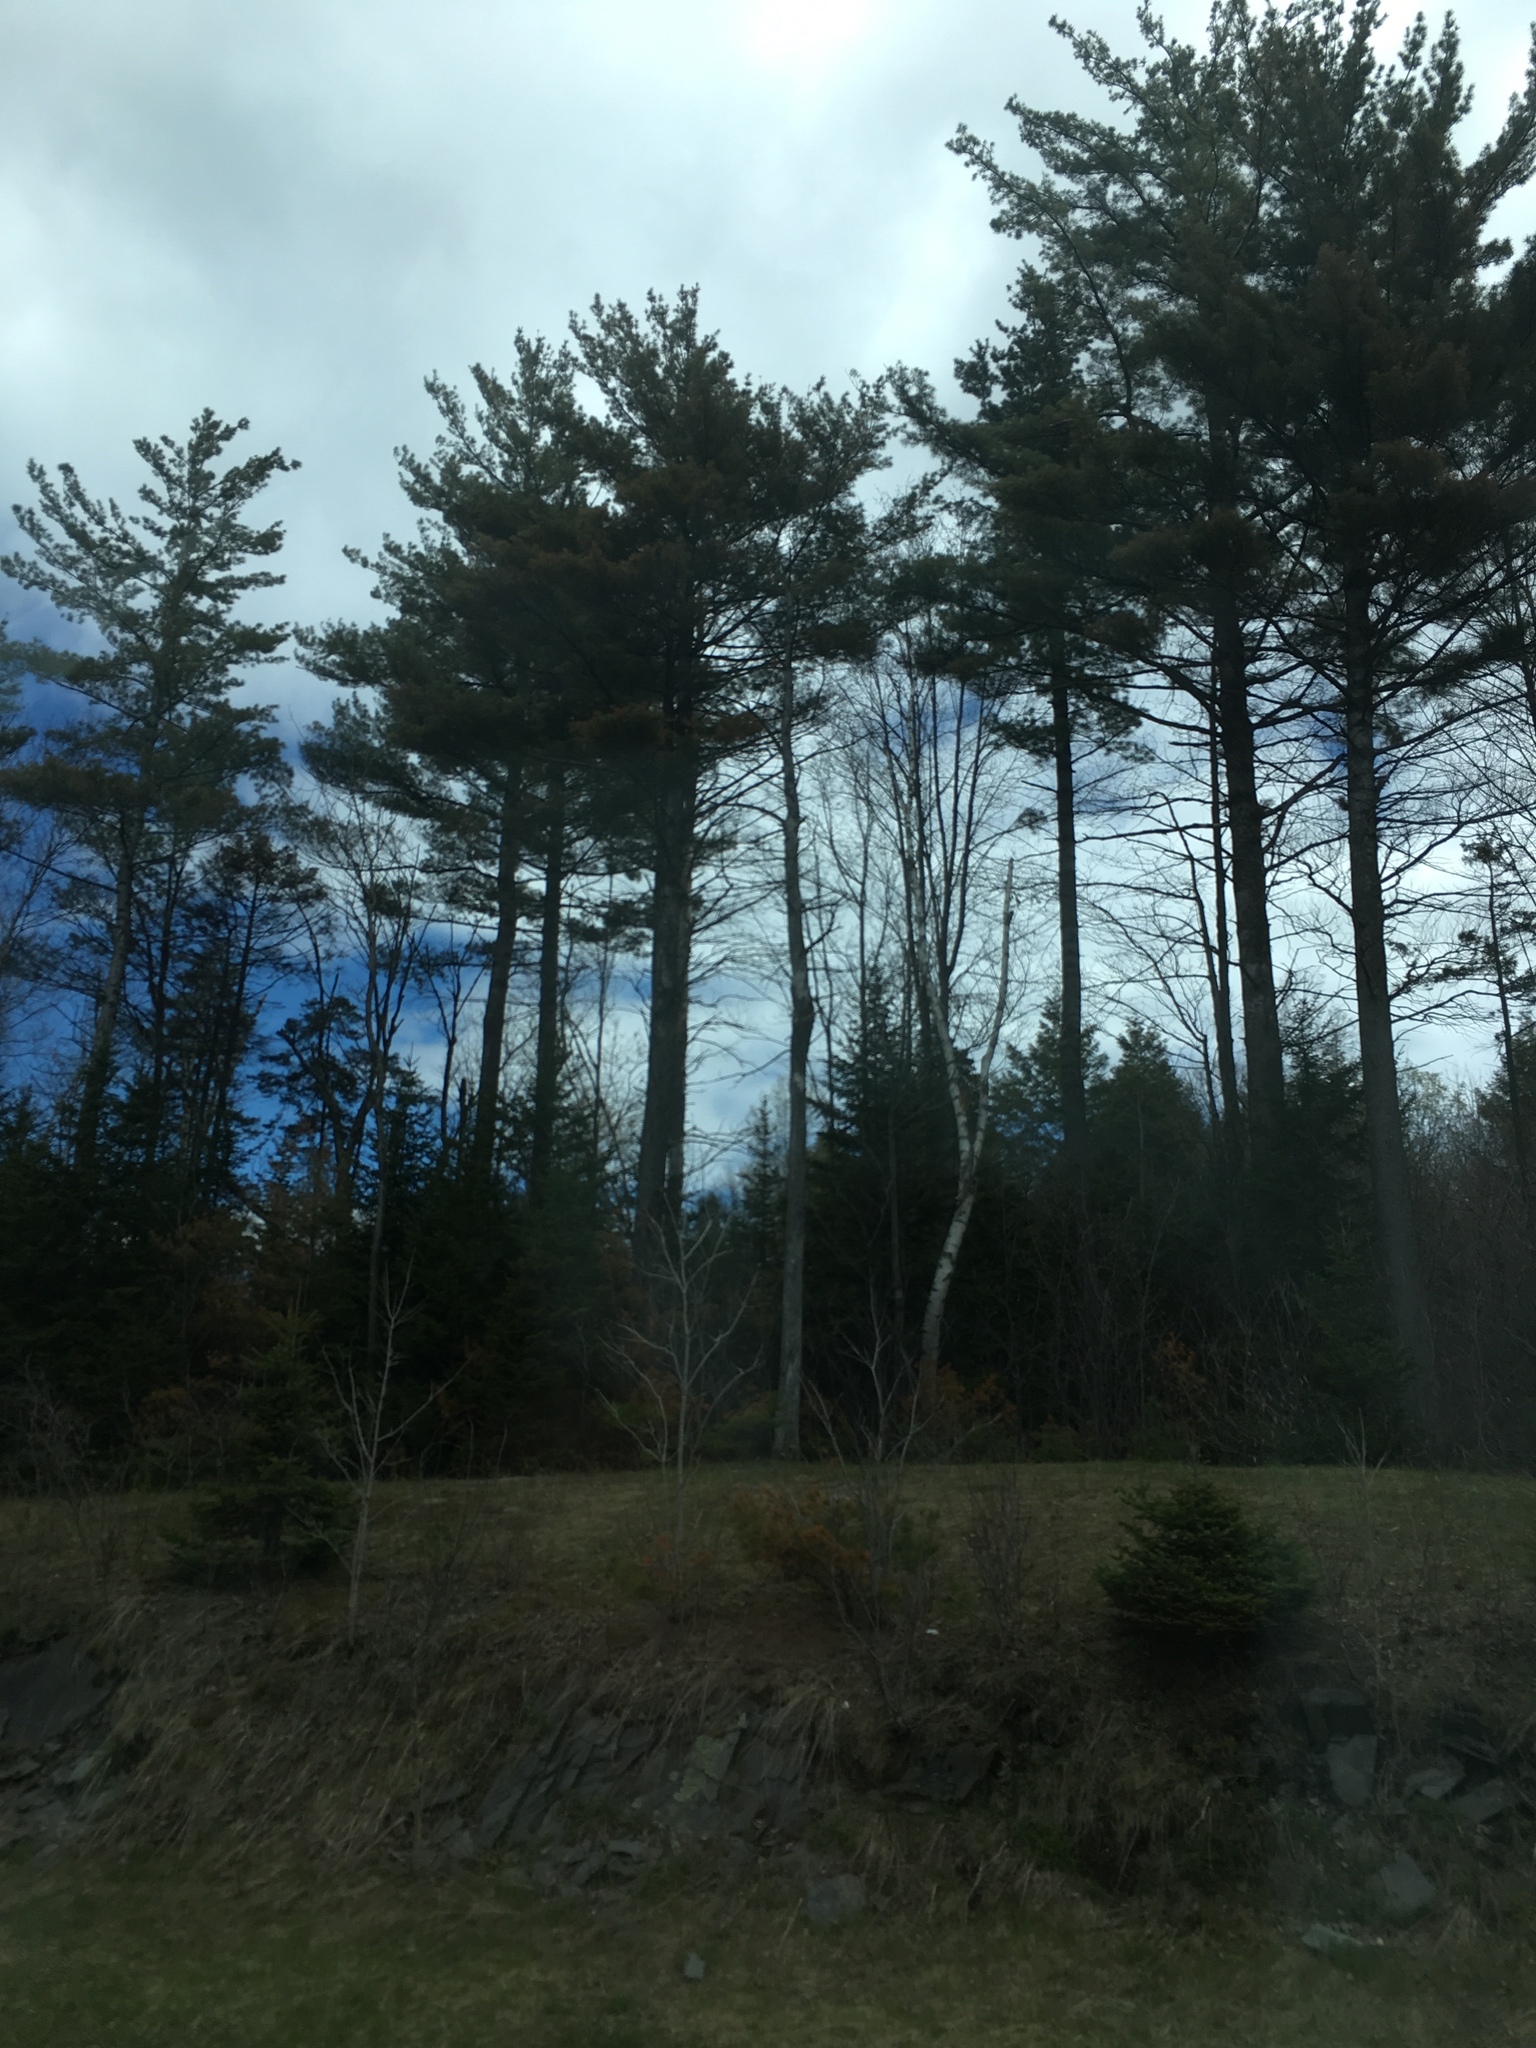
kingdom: Plantae
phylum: Tracheophyta
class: Pinopsida
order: Pinales
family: Pinaceae
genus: Pinus
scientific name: Pinus strobus
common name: Weymouth pine
